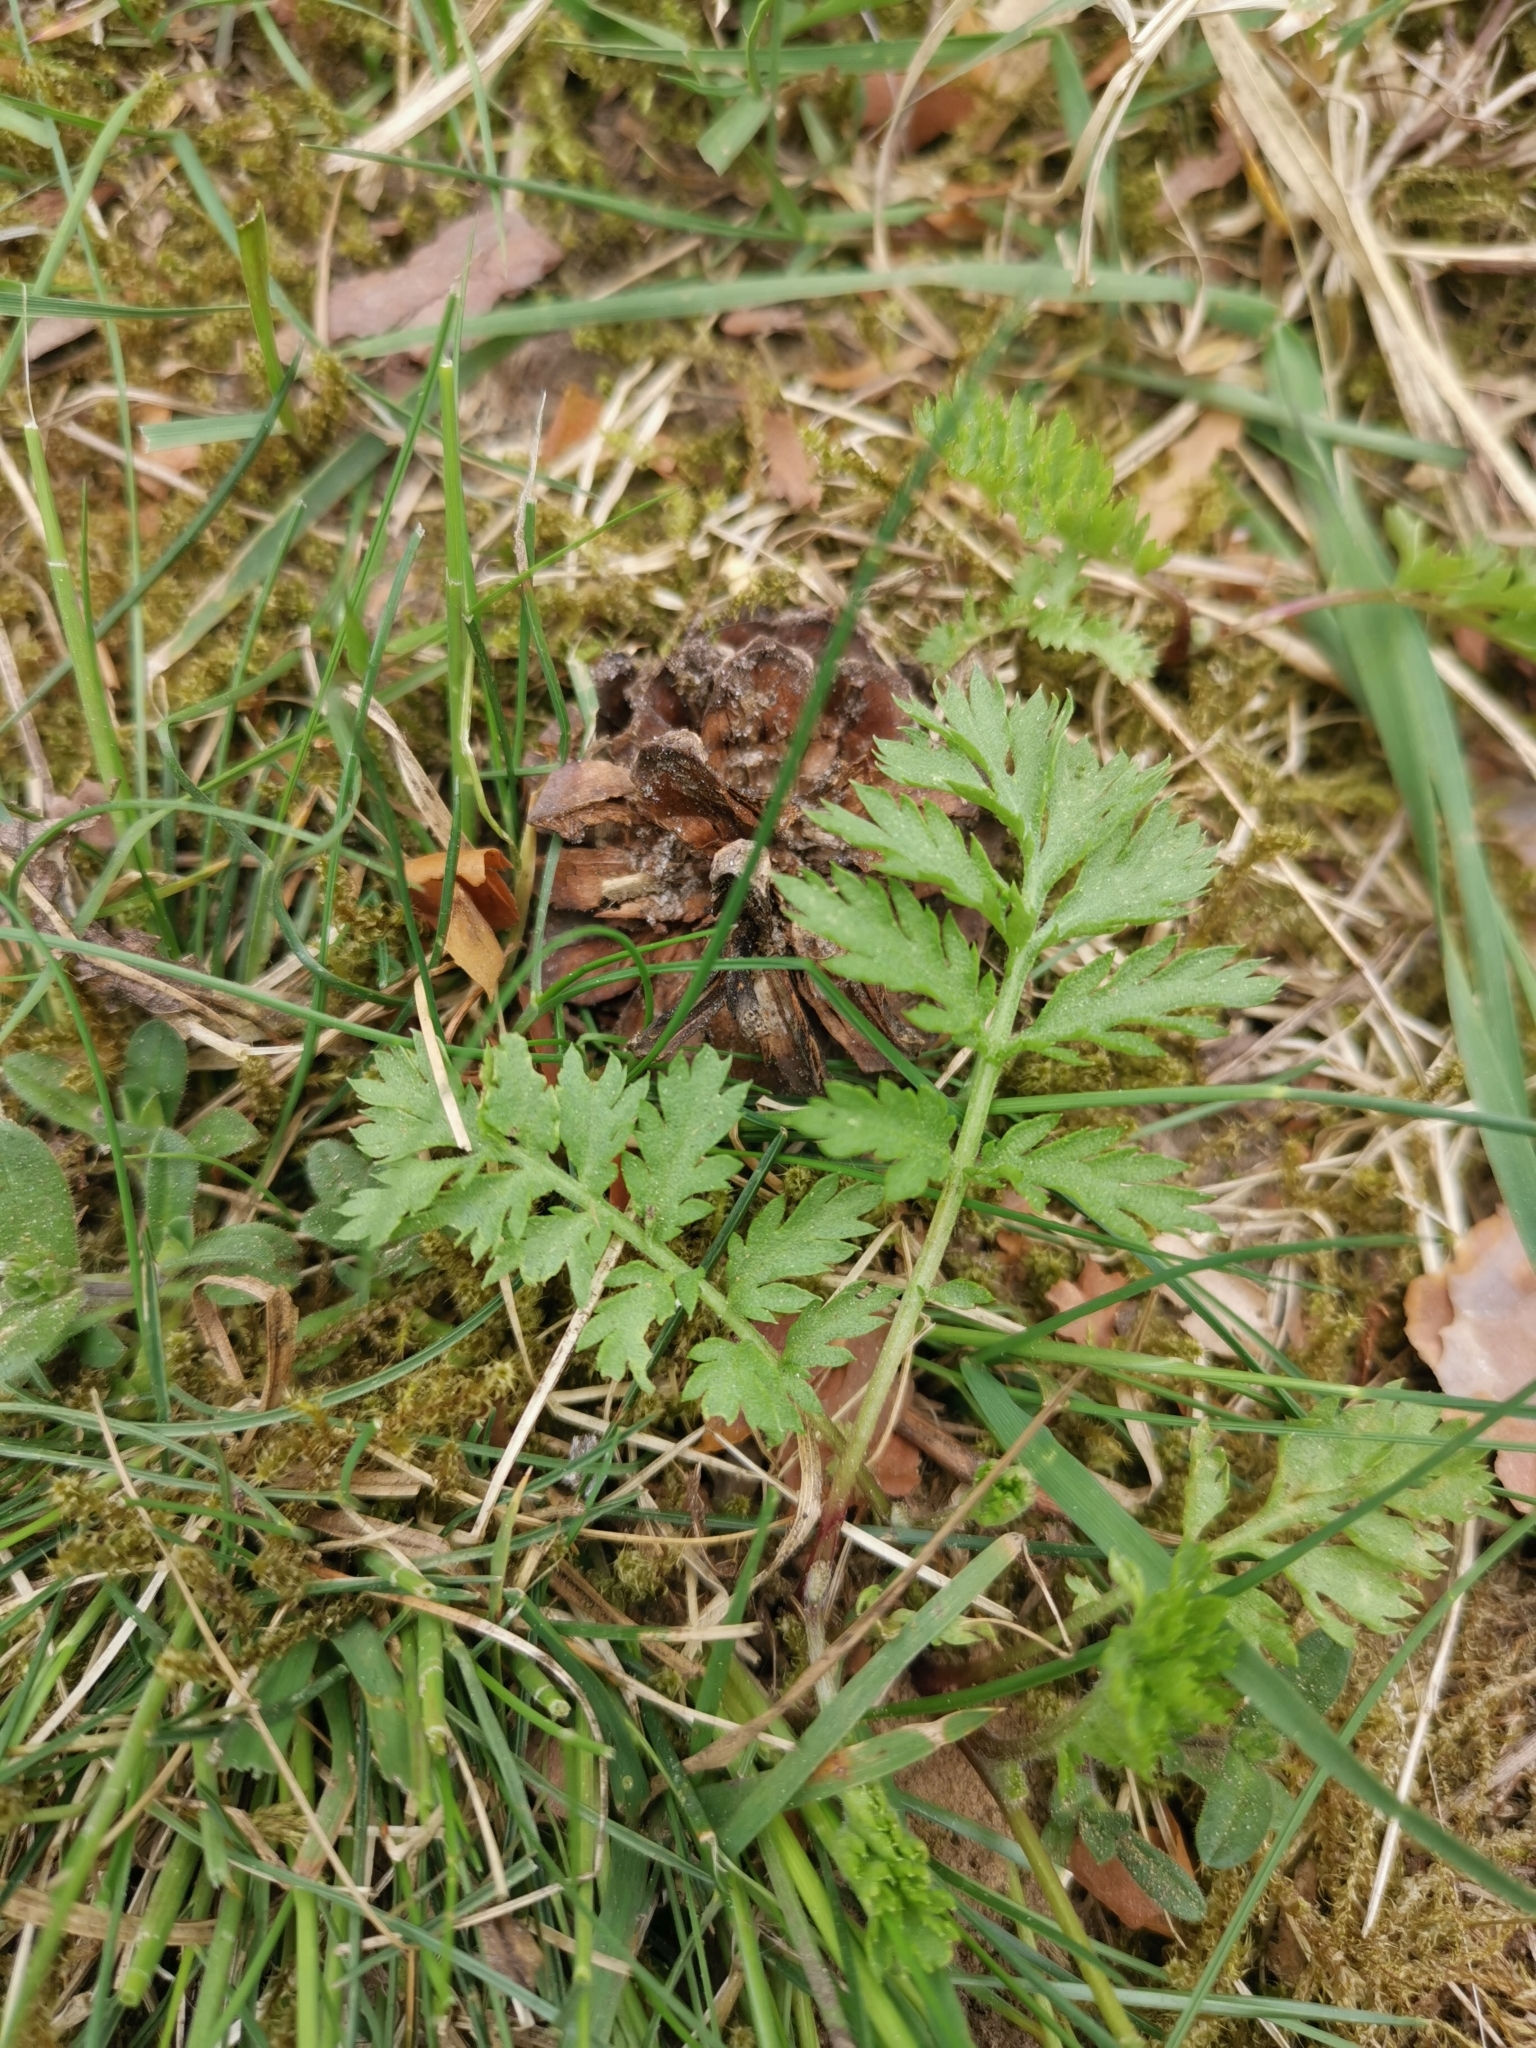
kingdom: Plantae
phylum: Tracheophyta
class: Magnoliopsida
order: Asterales
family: Asteraceae
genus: Tanacetum
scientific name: Tanacetum vulgare
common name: Common tansy
